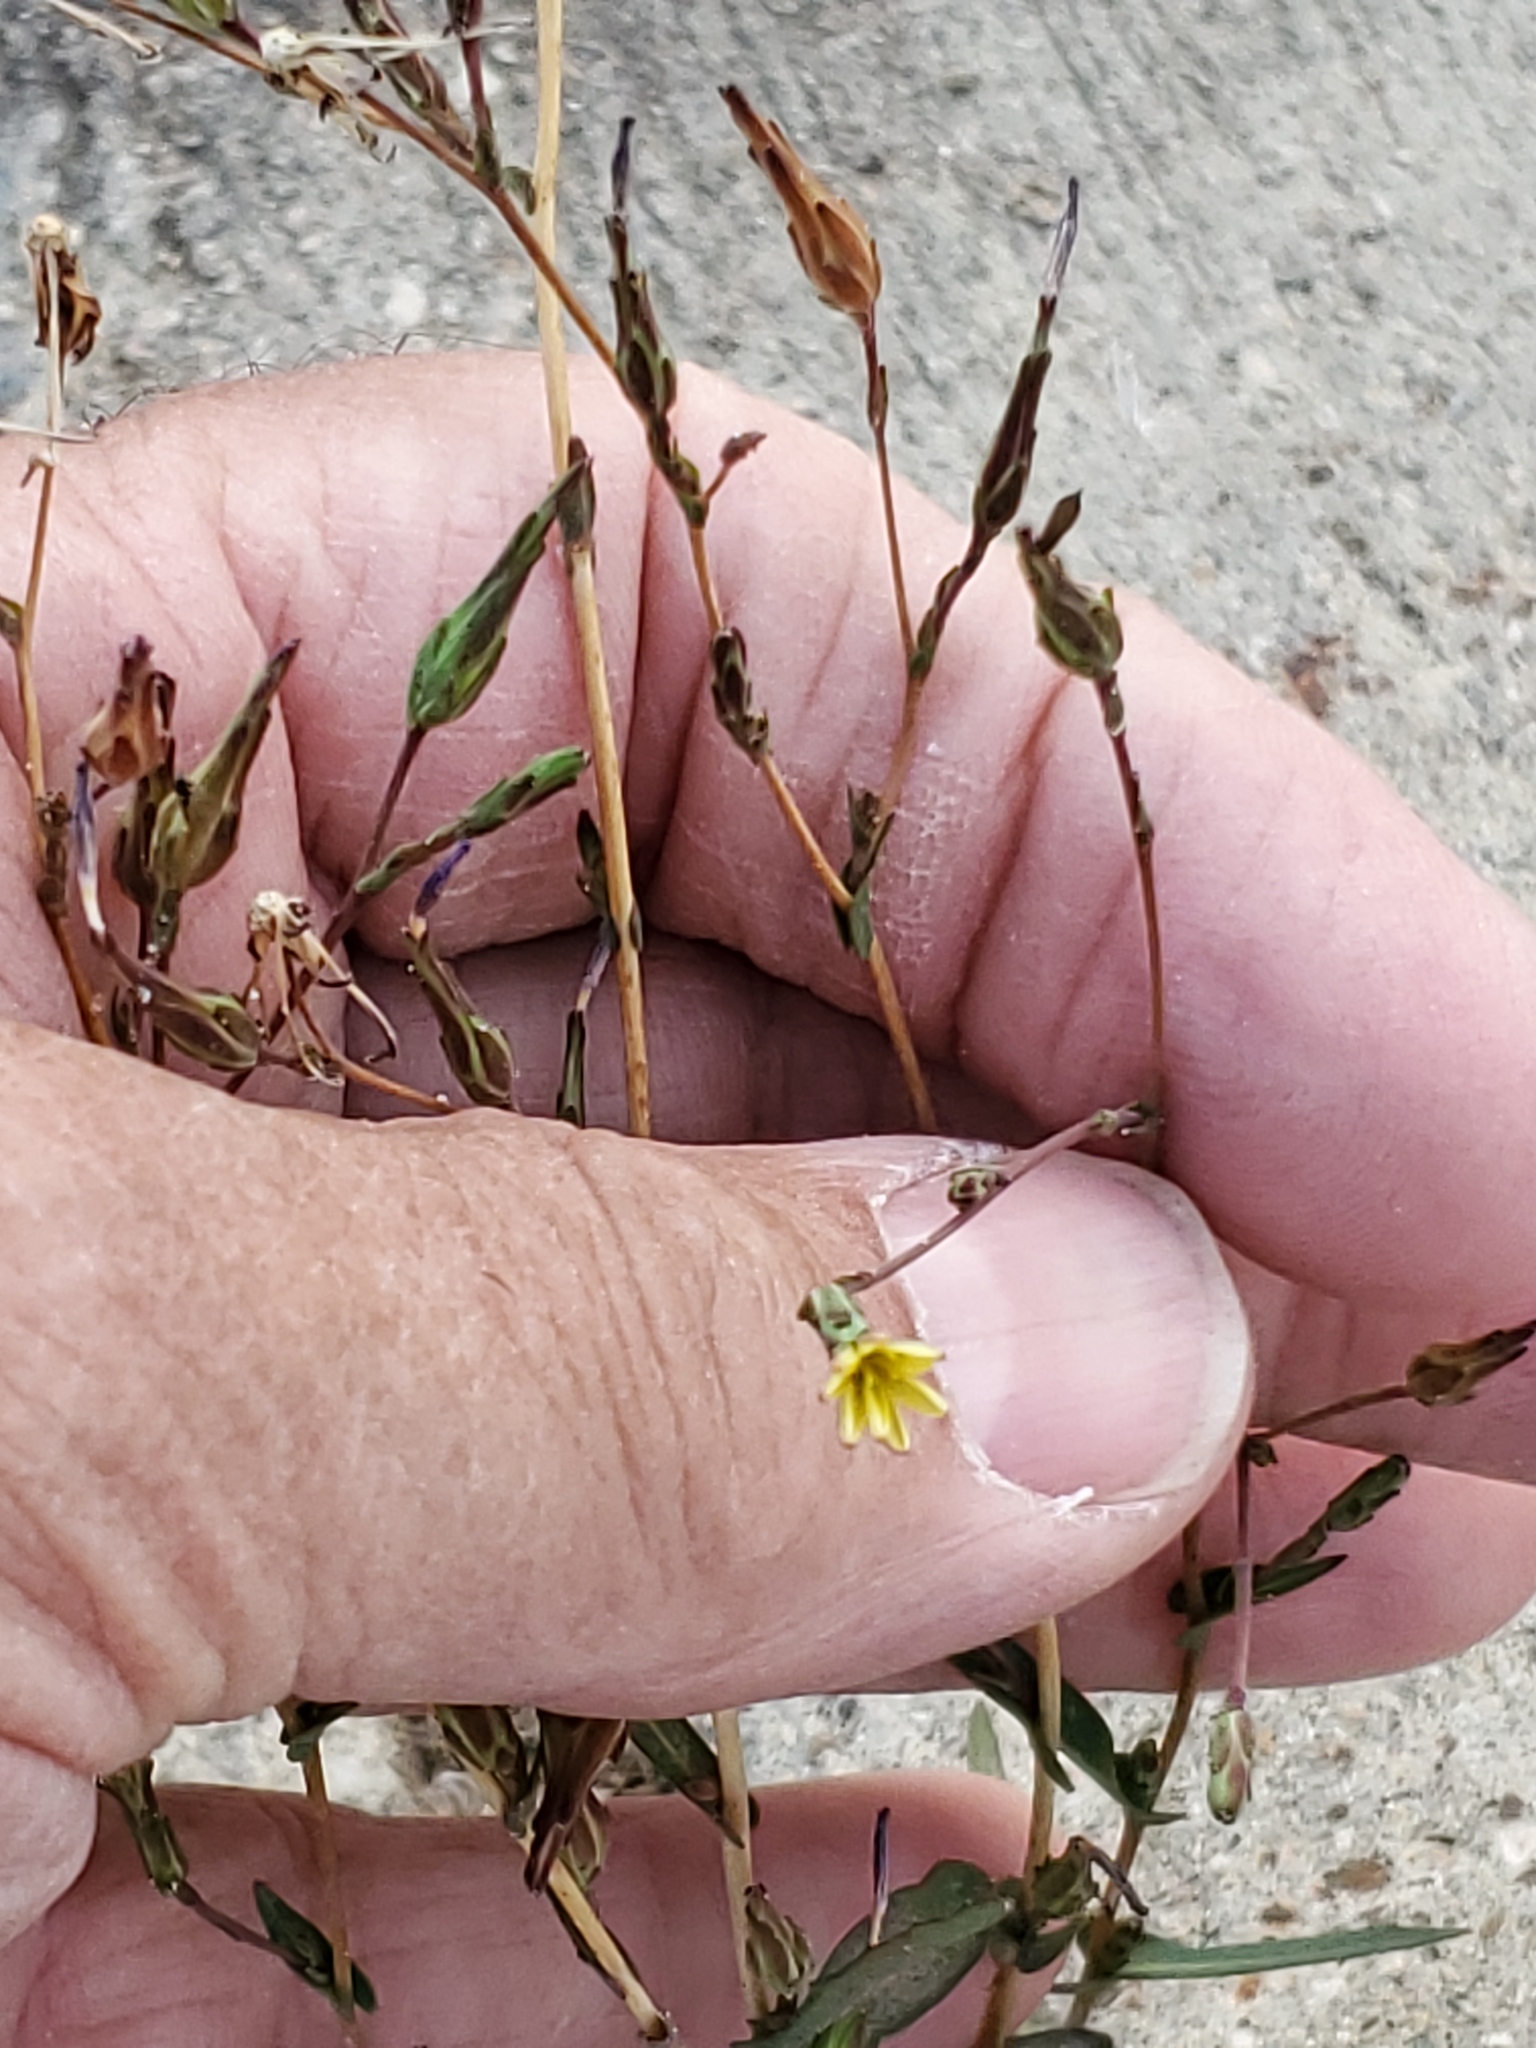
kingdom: Plantae
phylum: Tracheophyta
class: Magnoliopsida
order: Asterales
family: Asteraceae
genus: Lactuca
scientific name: Lactuca serriola
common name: Prickly lettuce
